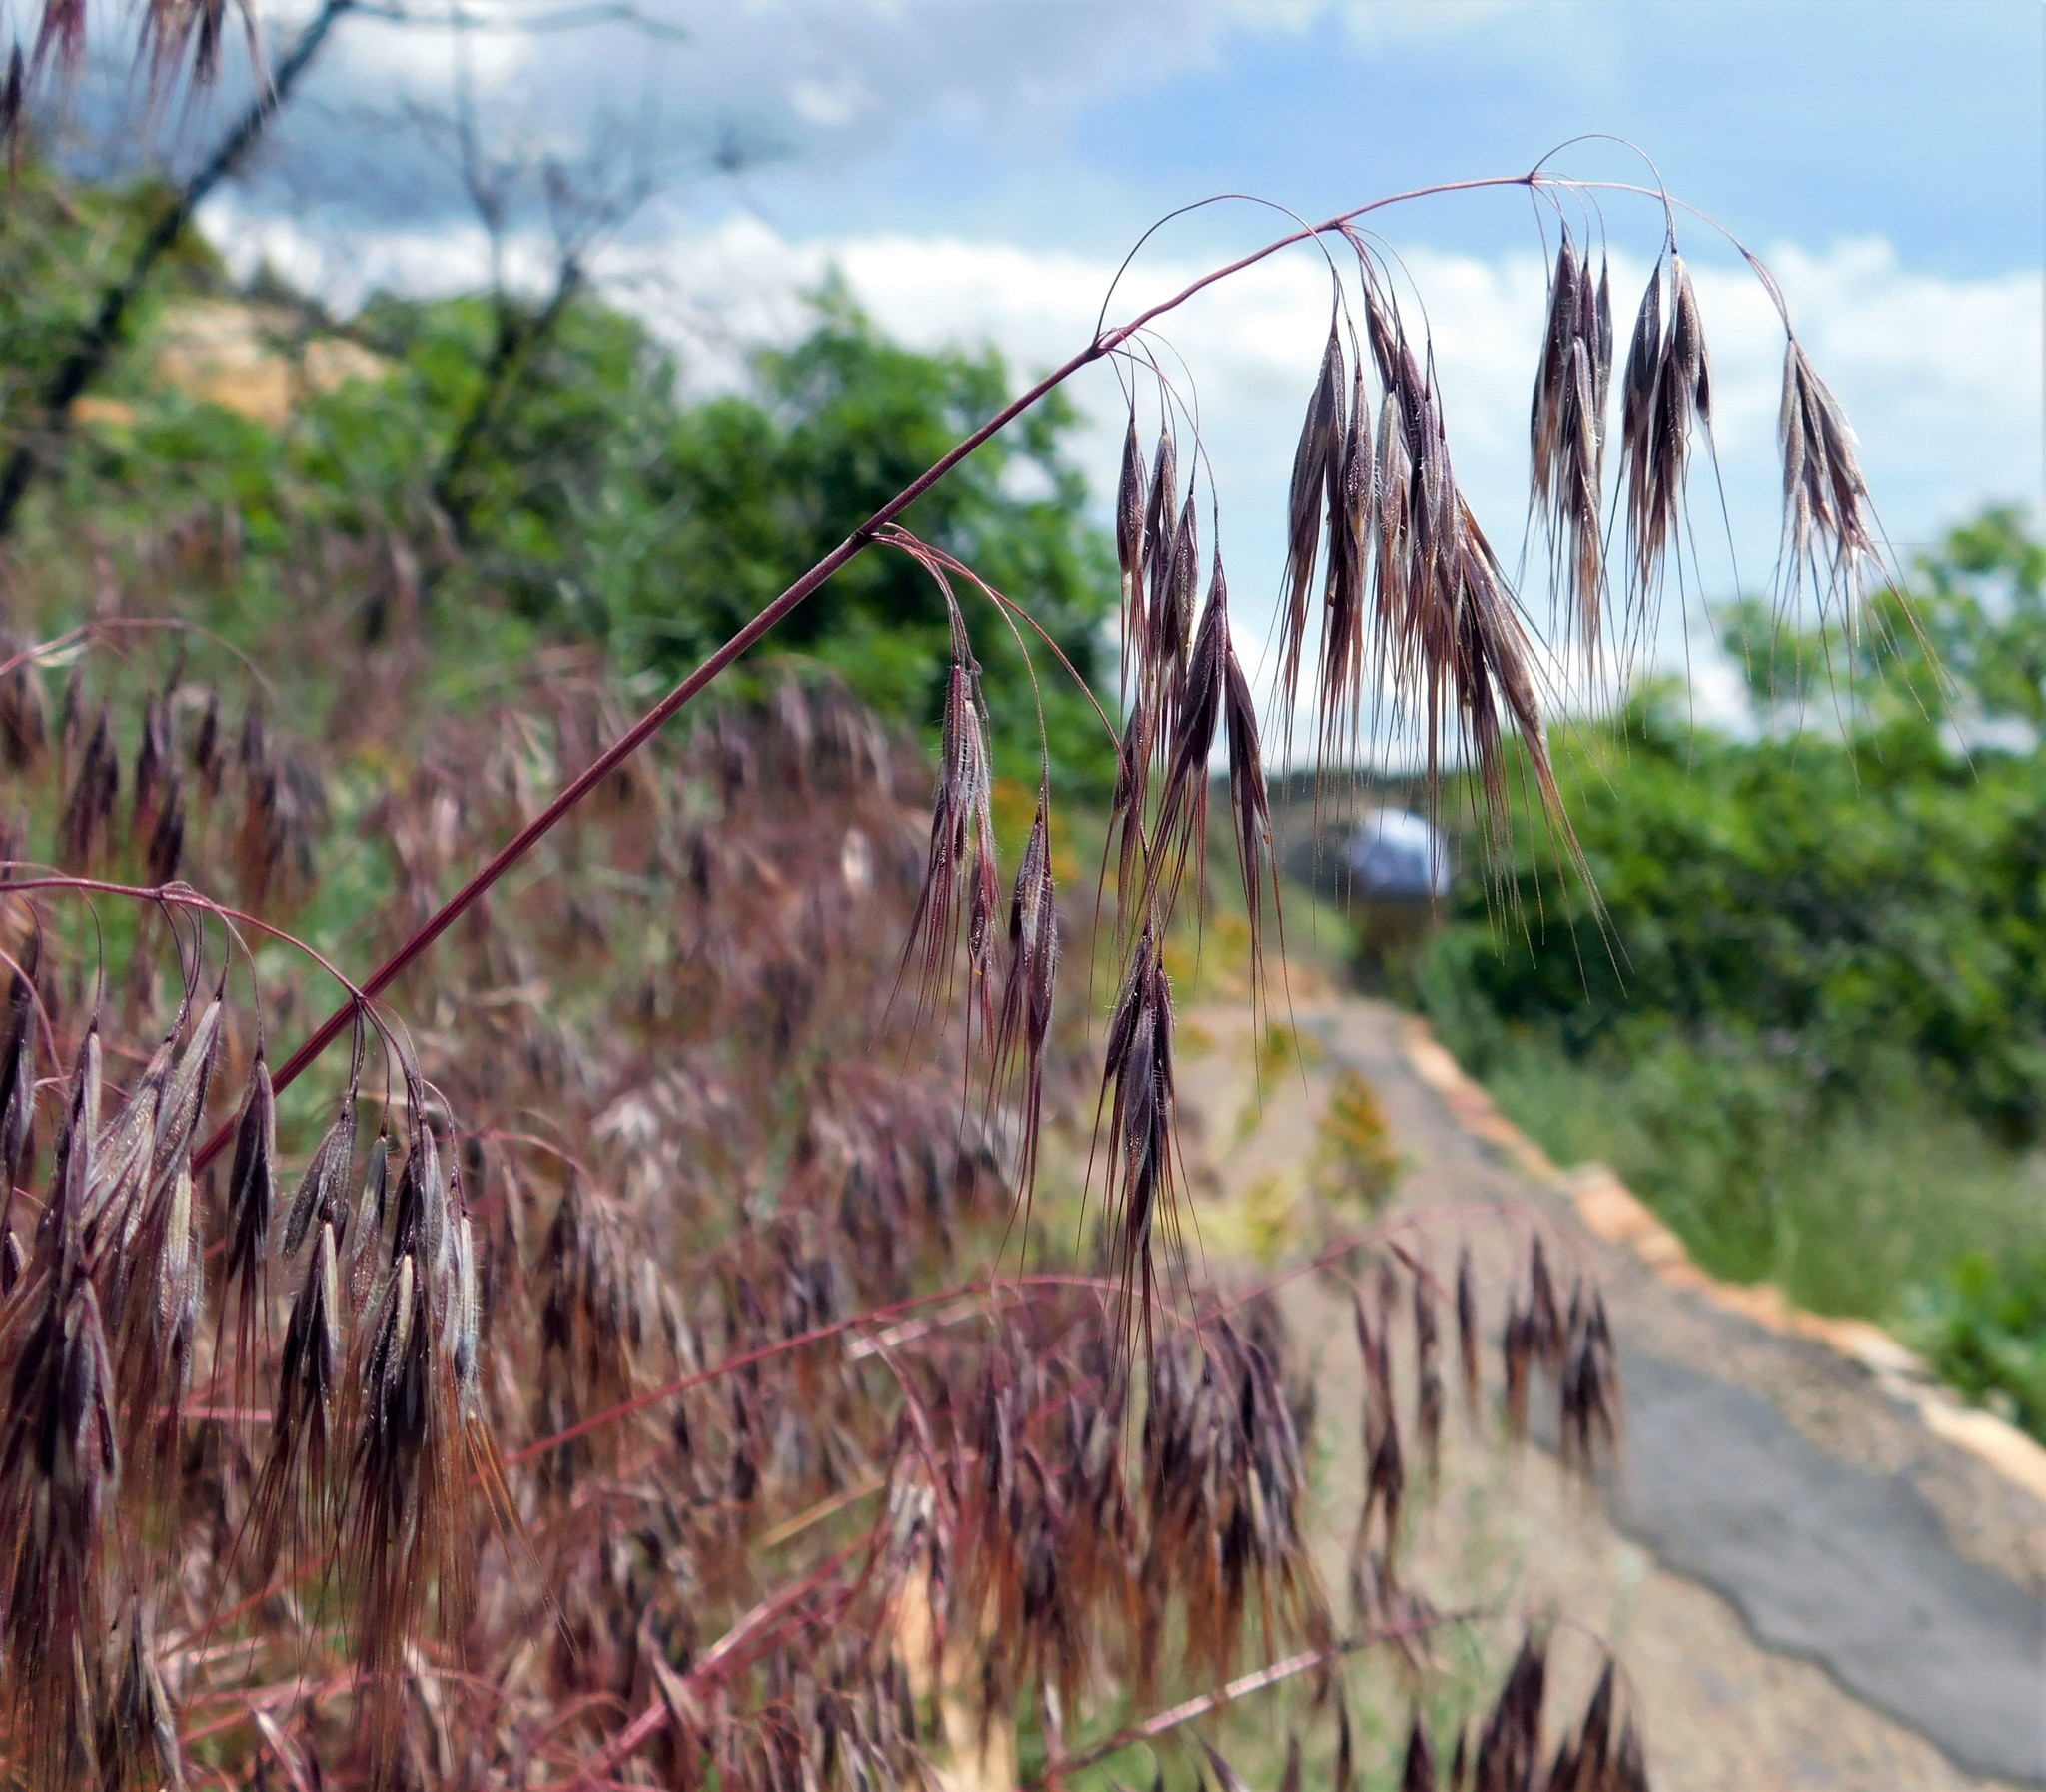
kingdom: Plantae
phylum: Tracheophyta
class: Liliopsida
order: Poales
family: Poaceae
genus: Bromus
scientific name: Bromus tectorum
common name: Cheatgrass
